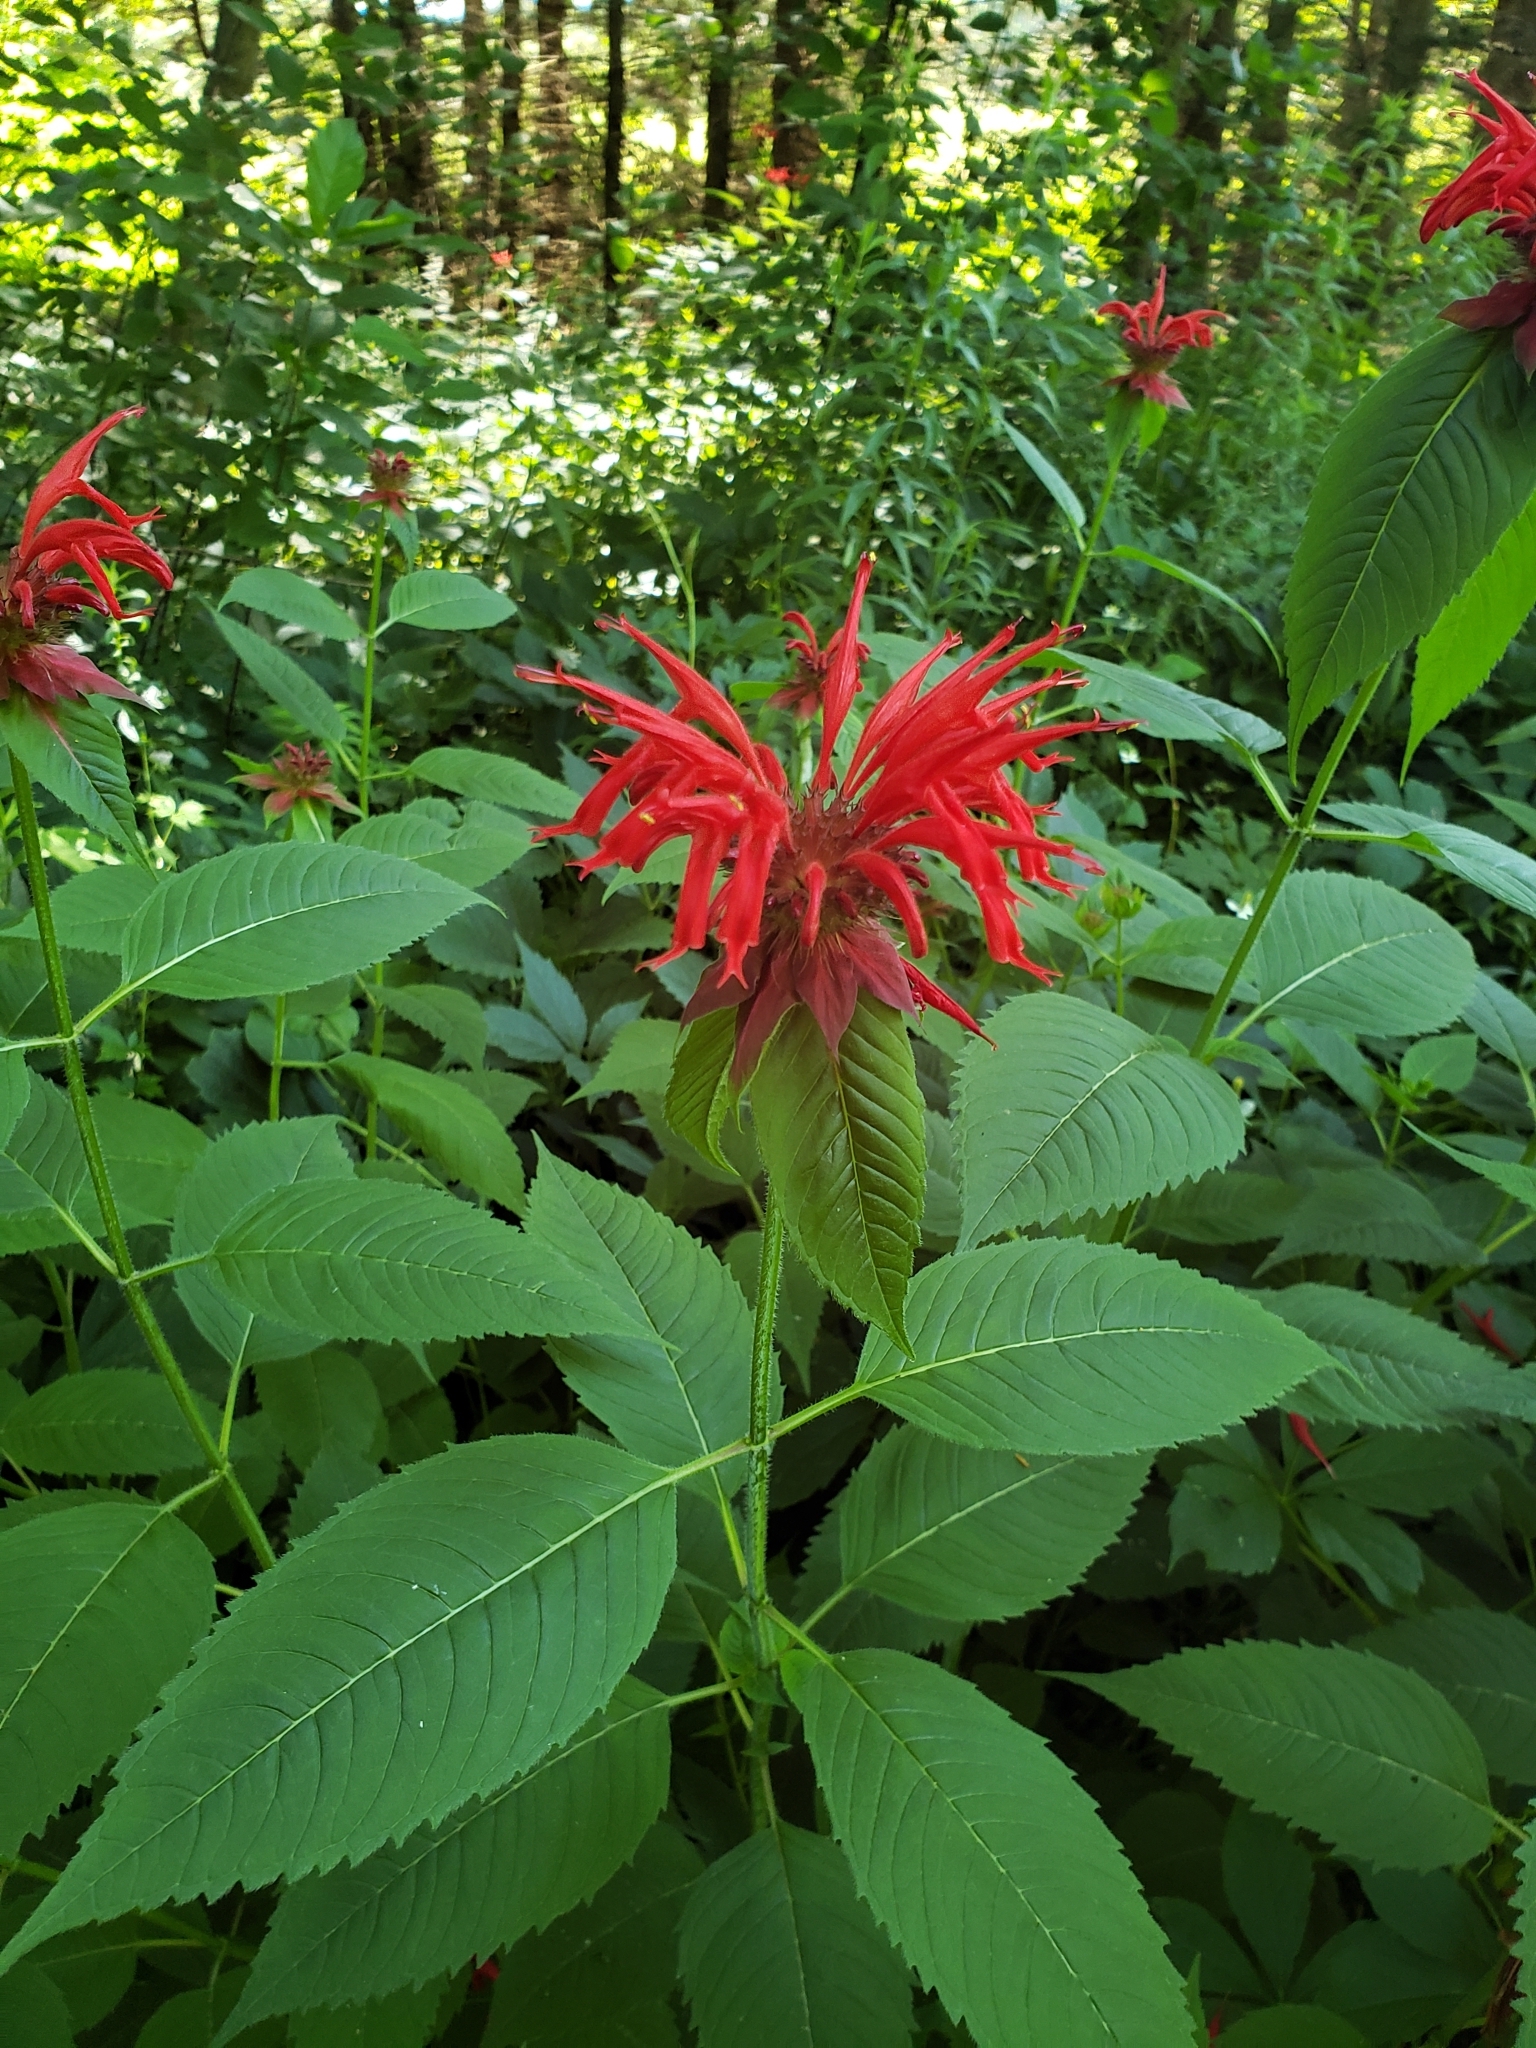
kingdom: Plantae
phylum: Tracheophyta
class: Magnoliopsida
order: Lamiales
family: Lamiaceae
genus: Monarda
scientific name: Monarda didyma
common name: Beebalm
